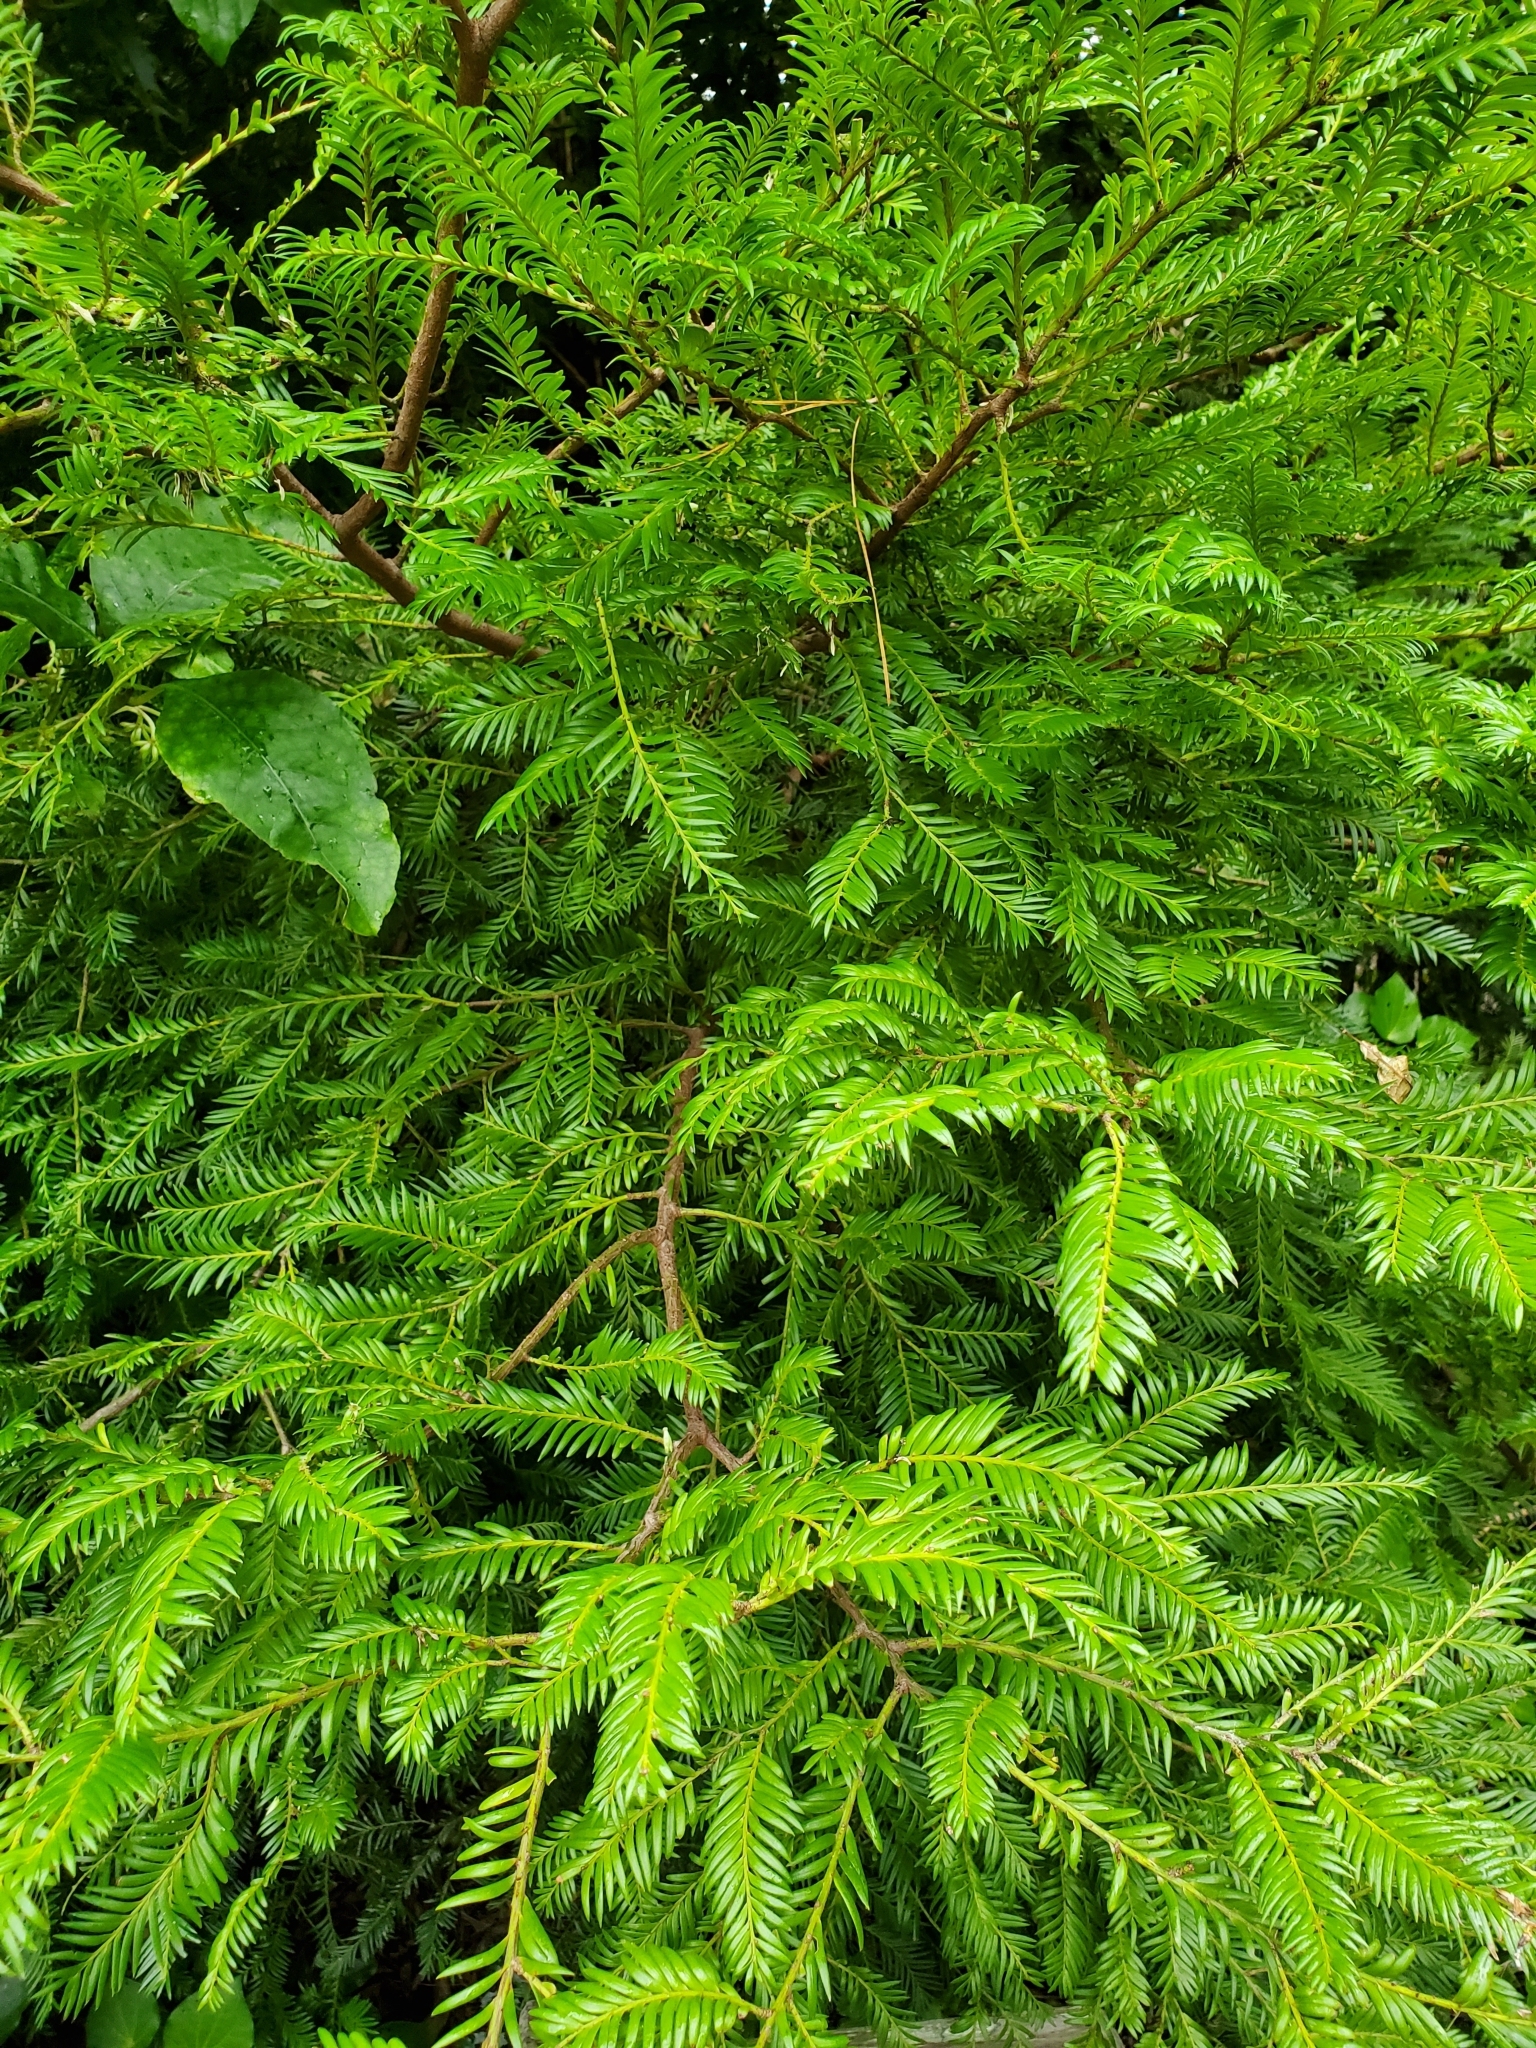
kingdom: Plantae
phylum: Tracheophyta
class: Pinopsida
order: Pinales
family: Podocarpaceae
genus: Prumnopitys
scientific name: Prumnopitys ferruginea
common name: Brown pine
